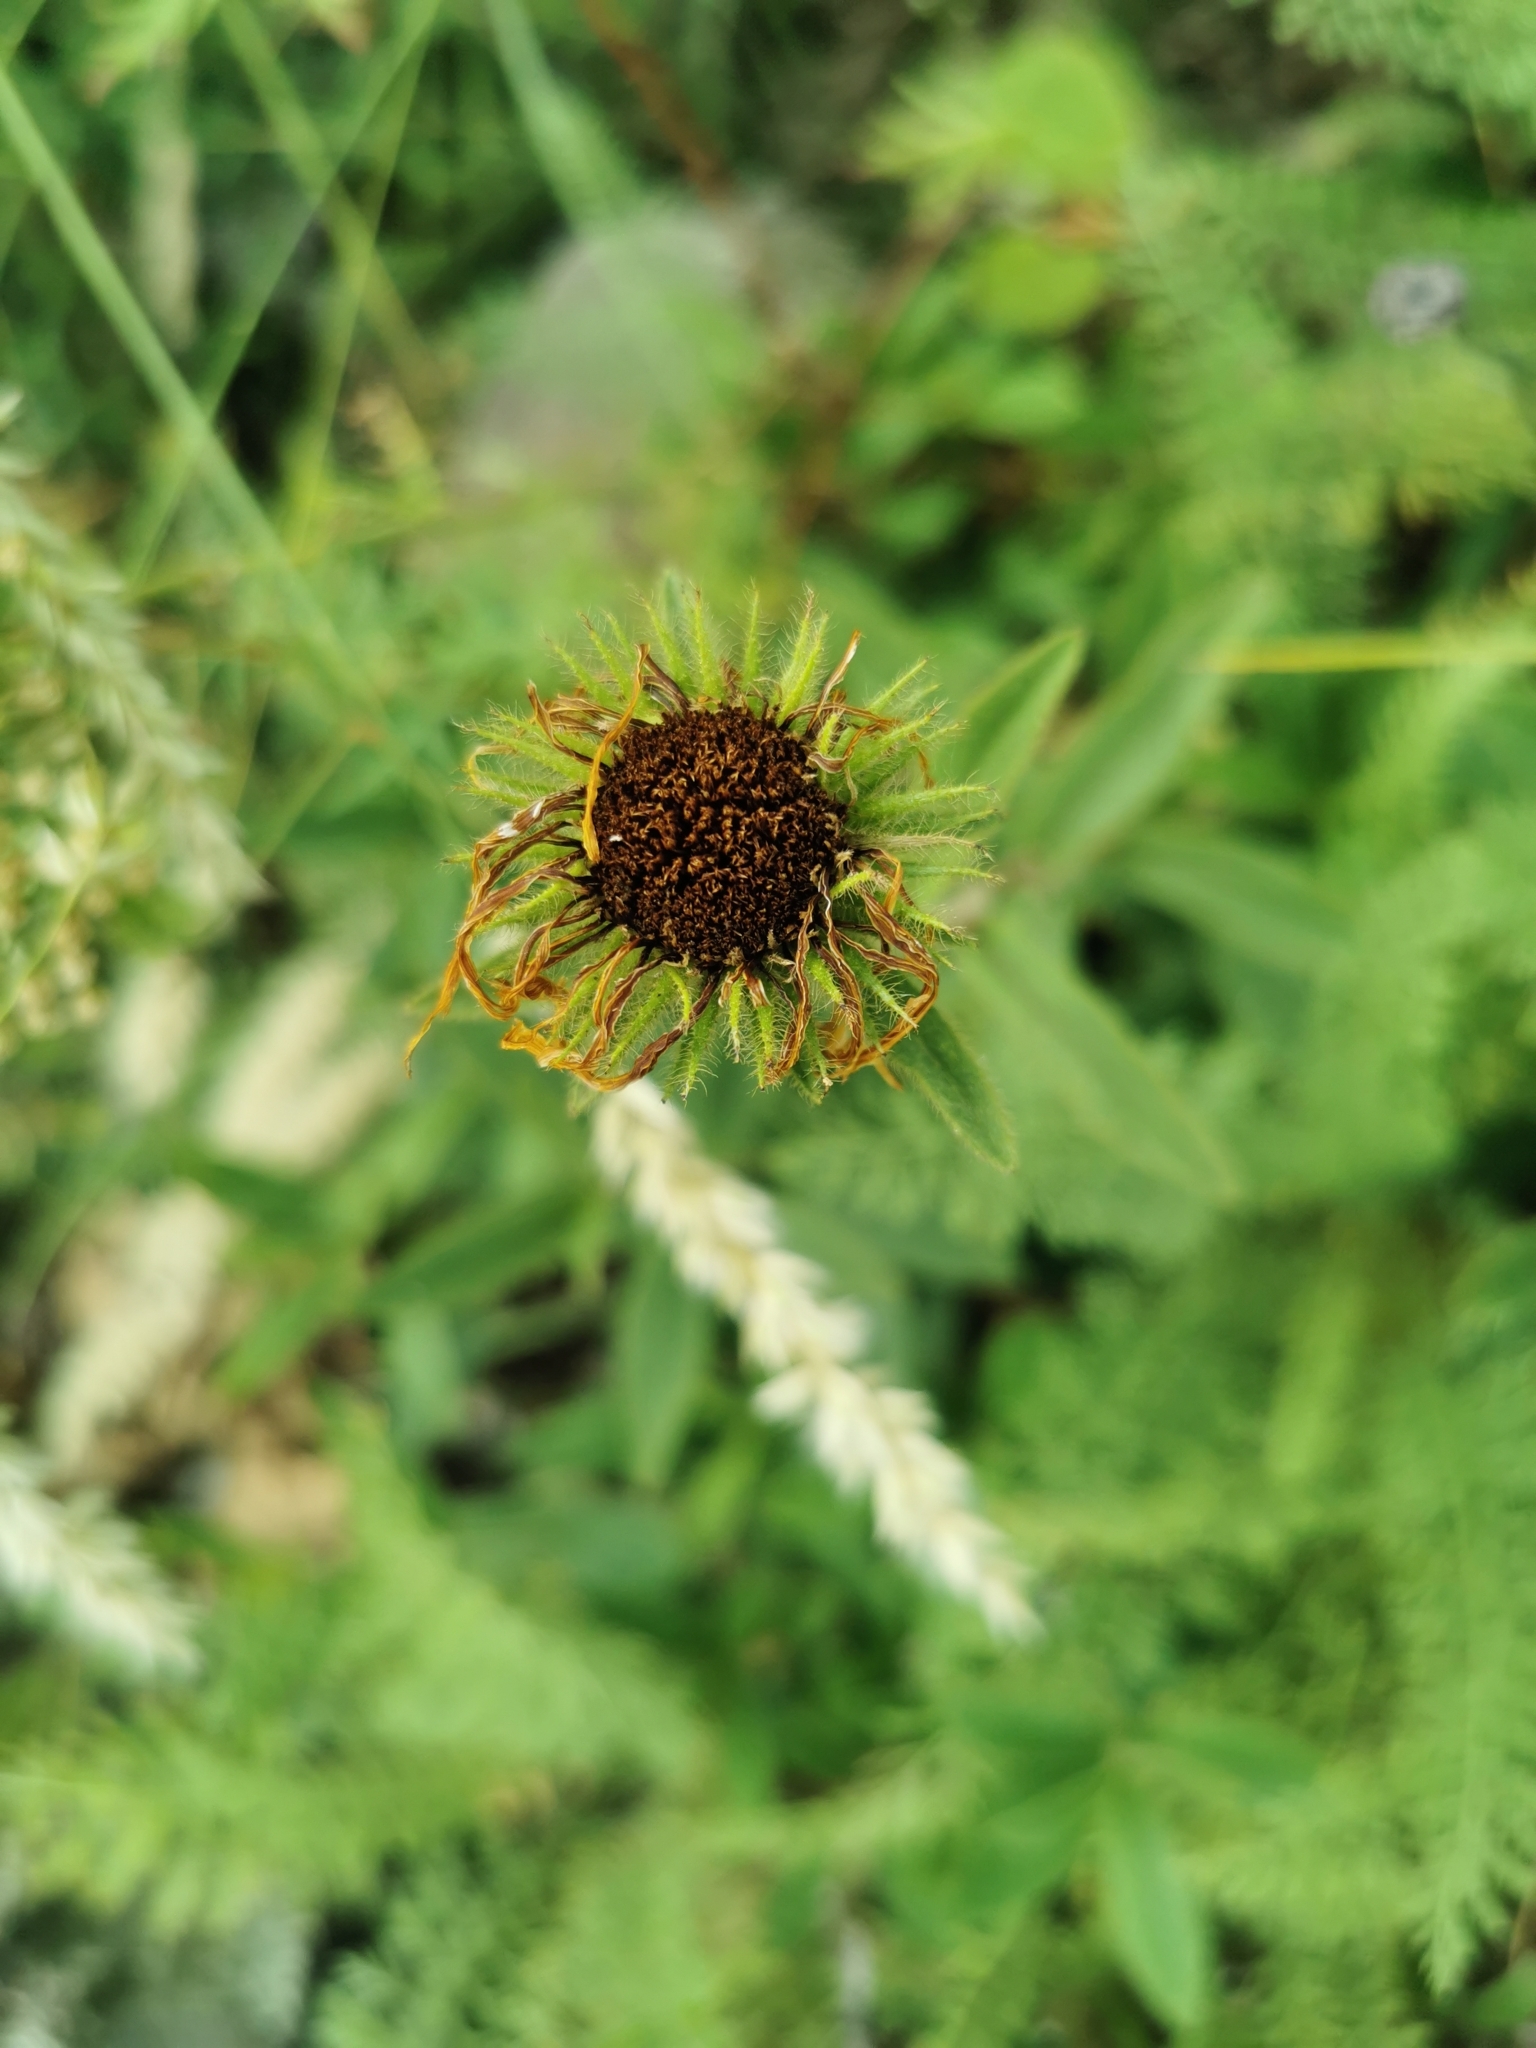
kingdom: Plantae
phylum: Tracheophyta
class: Magnoliopsida
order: Asterales
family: Asteraceae
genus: Pentanema
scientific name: Pentanema hirtum
